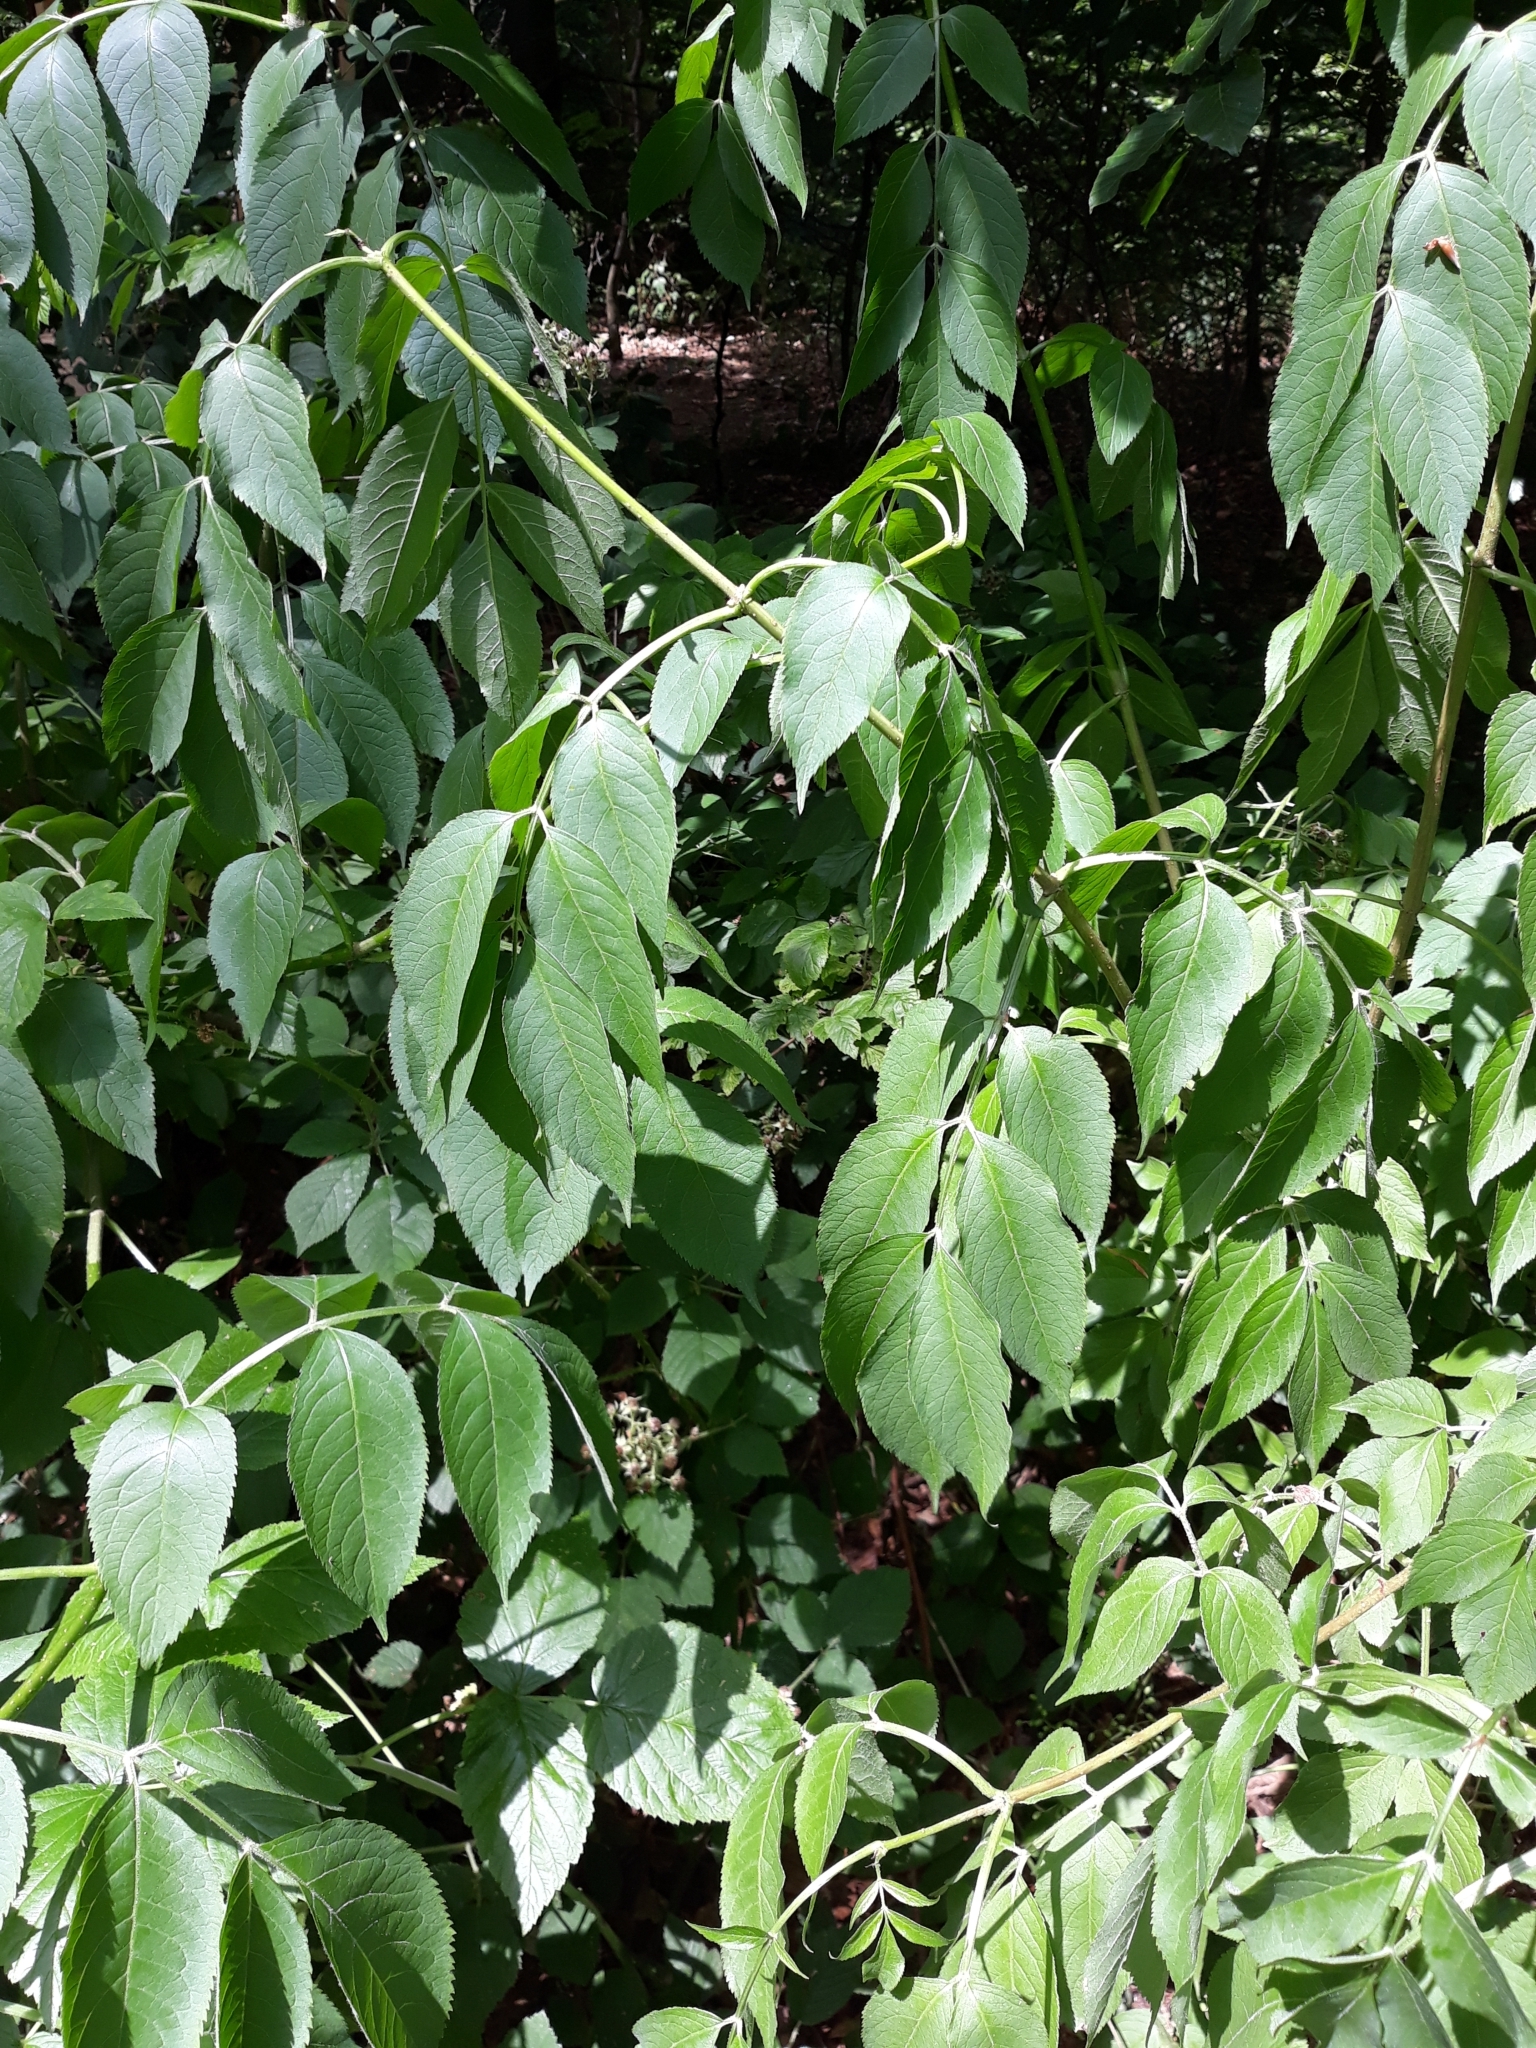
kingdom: Plantae
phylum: Tracheophyta
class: Magnoliopsida
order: Dipsacales
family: Viburnaceae
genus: Sambucus
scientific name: Sambucus nigra
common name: Elder
